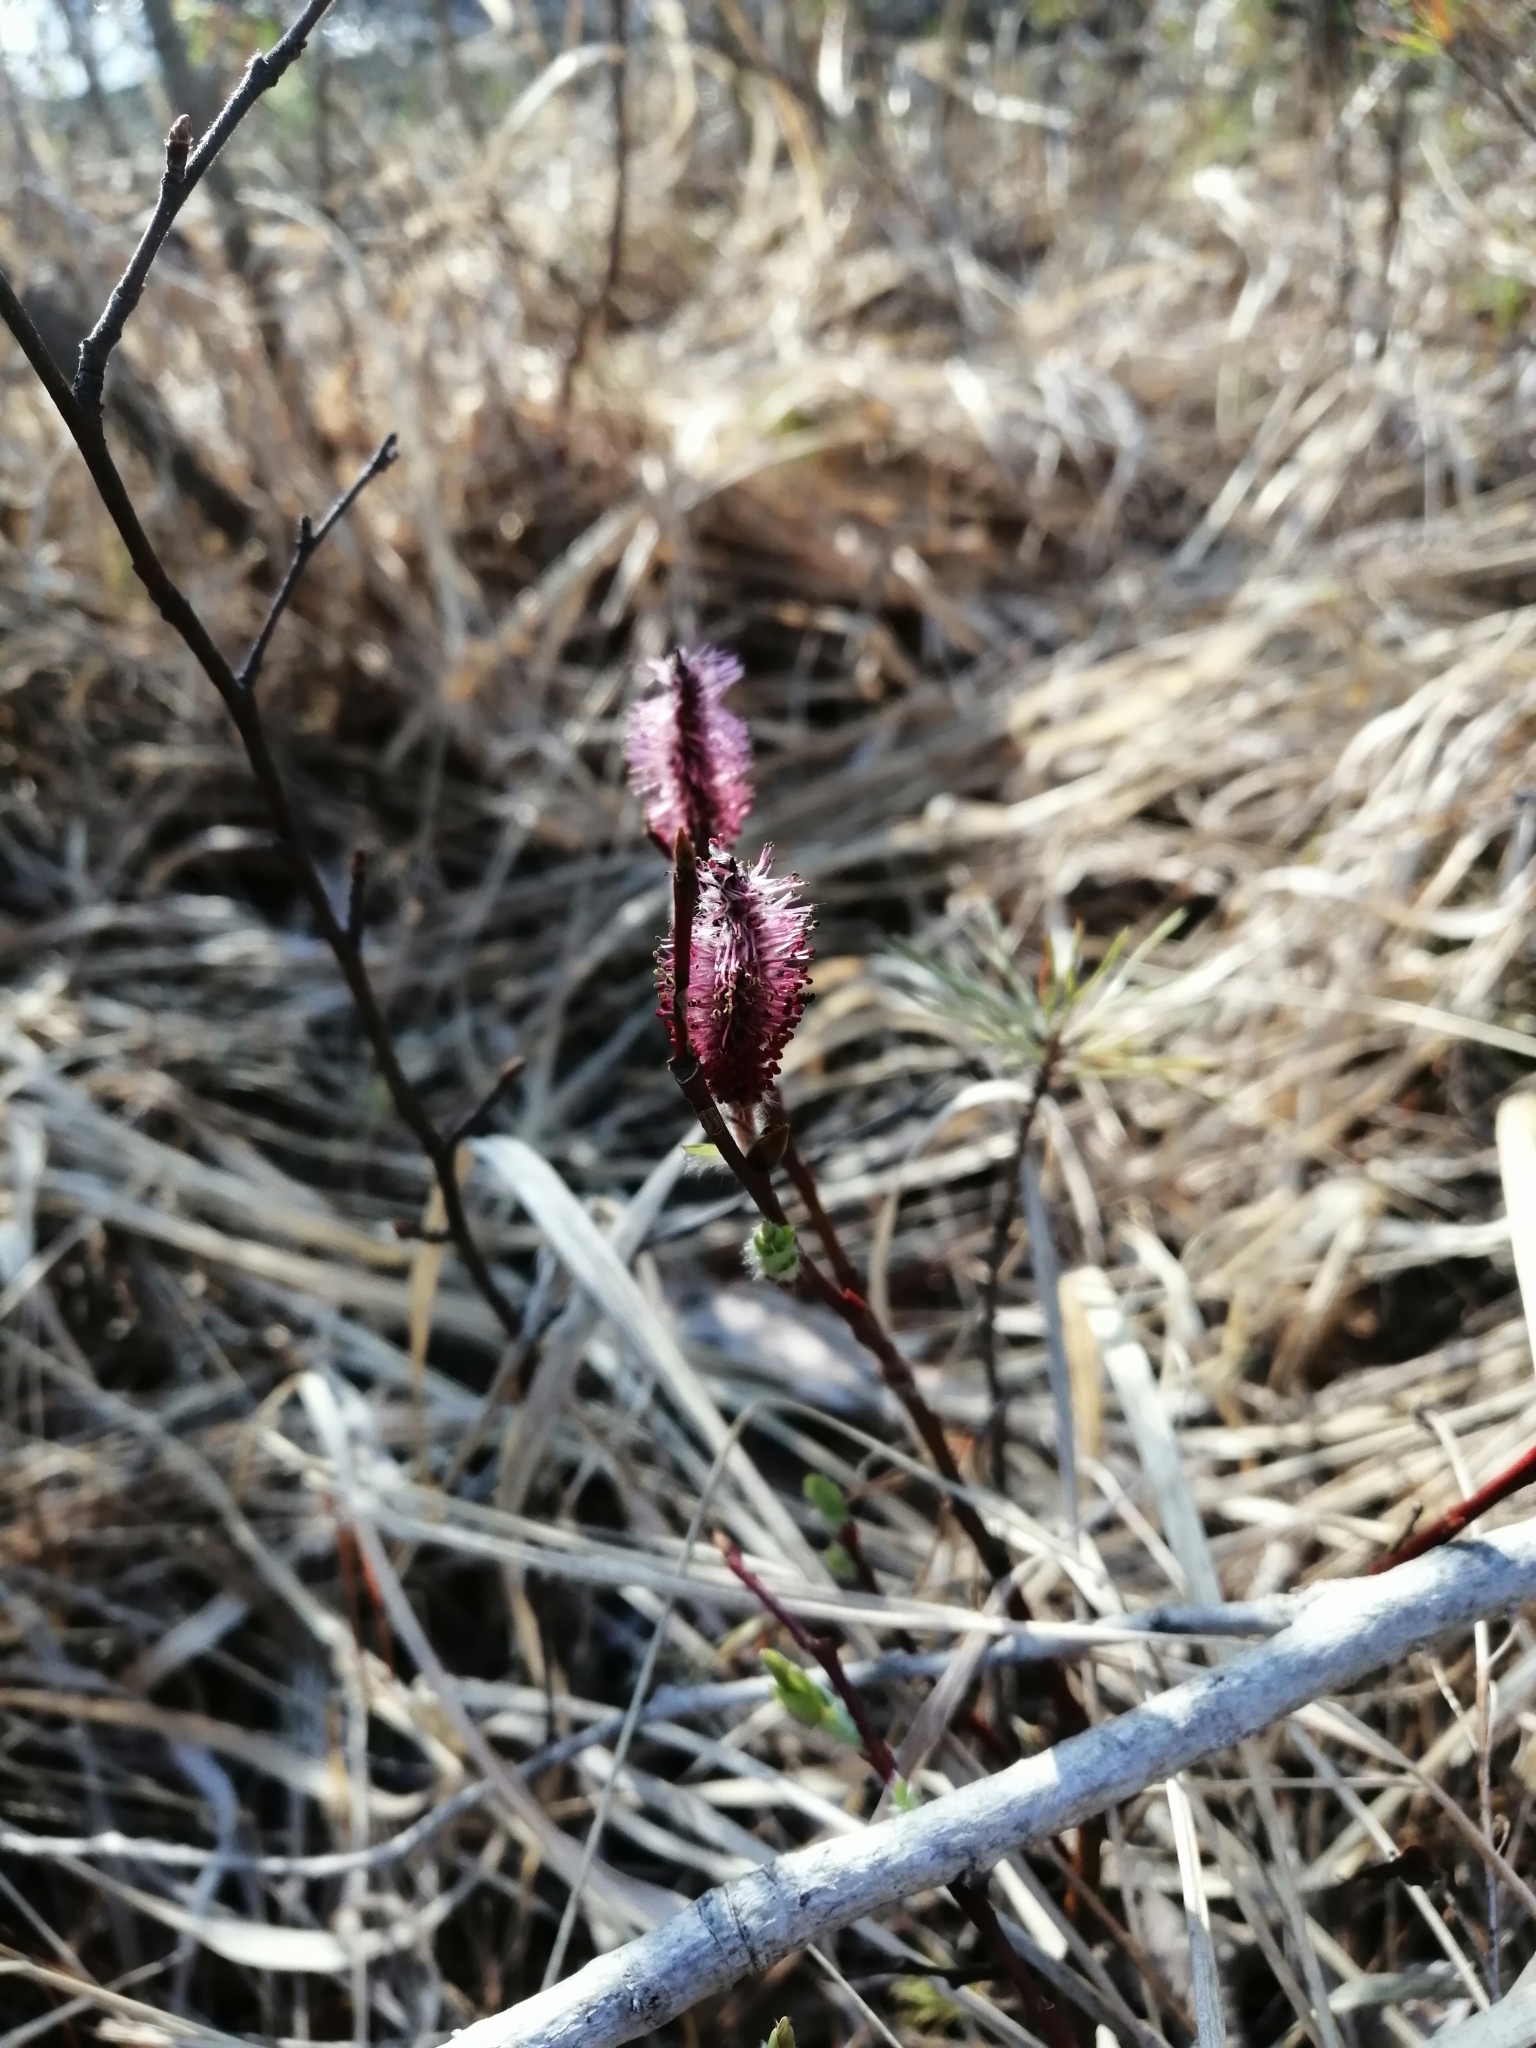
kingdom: Plantae
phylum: Tracheophyta
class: Magnoliopsida
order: Malpighiales
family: Salicaceae
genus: Salix
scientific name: Salix saxatilis
